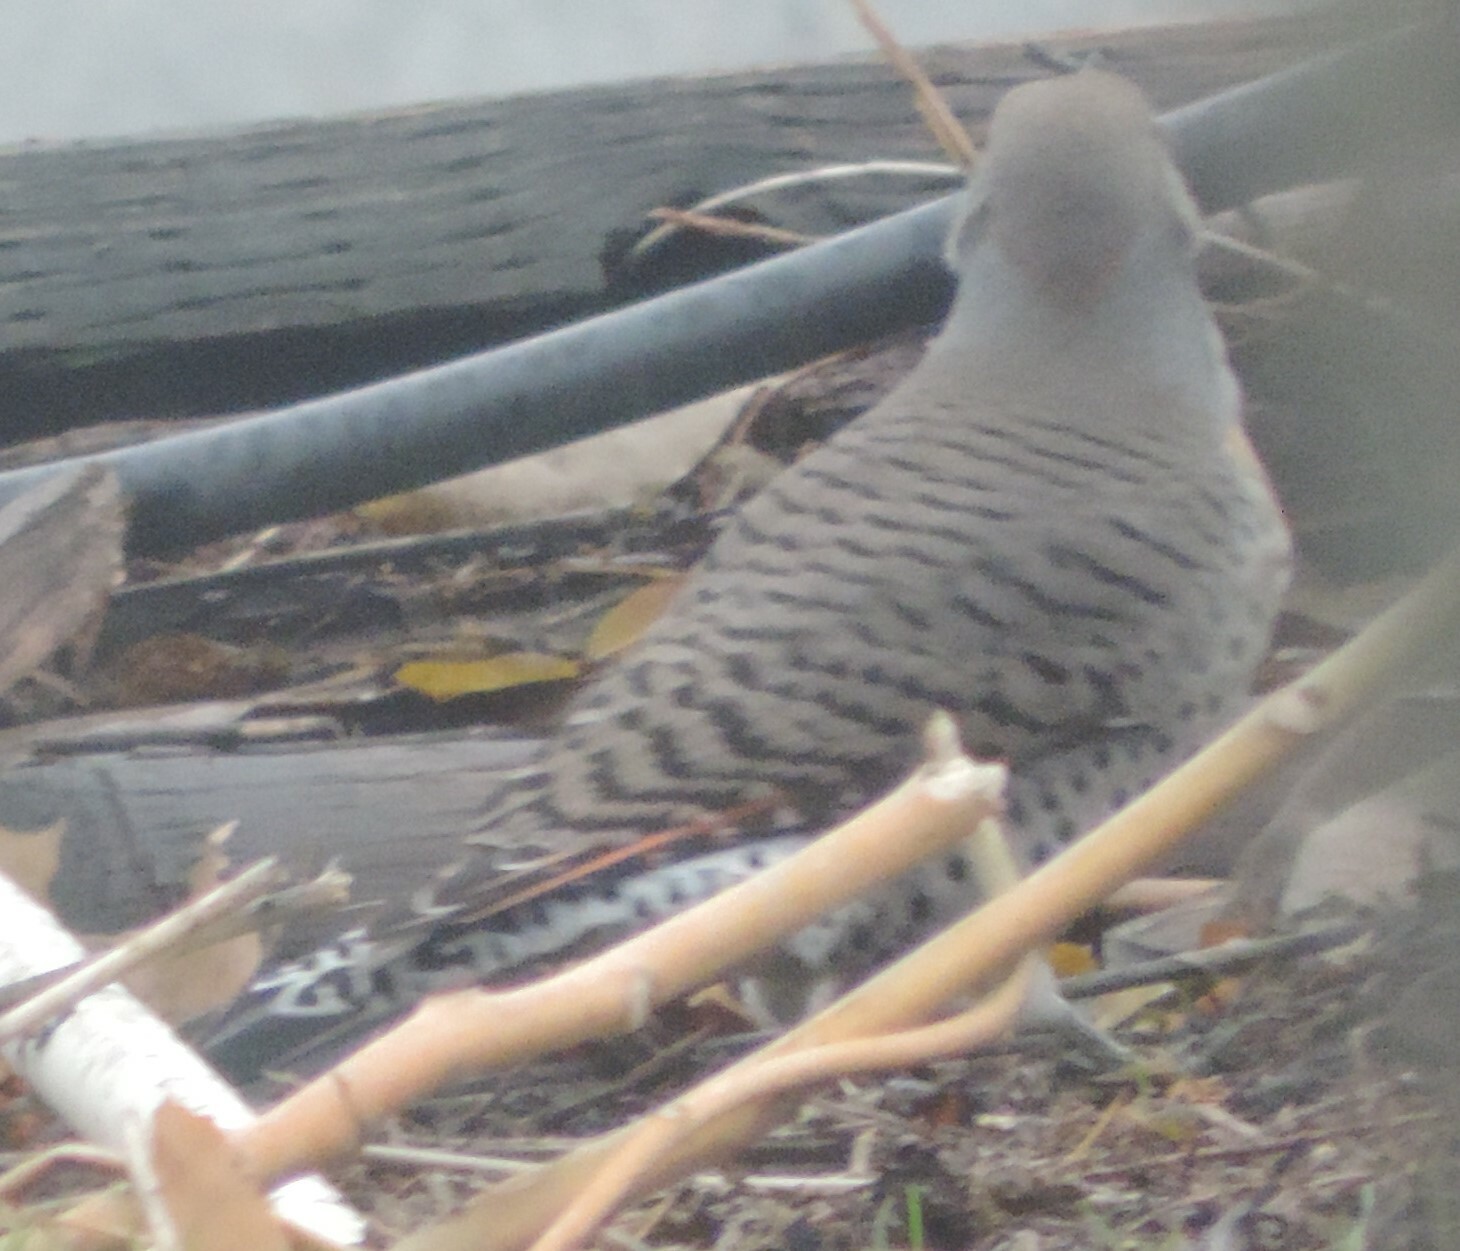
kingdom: Animalia
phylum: Chordata
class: Aves
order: Piciformes
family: Picidae
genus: Colaptes
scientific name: Colaptes auratus
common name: Northern flicker
